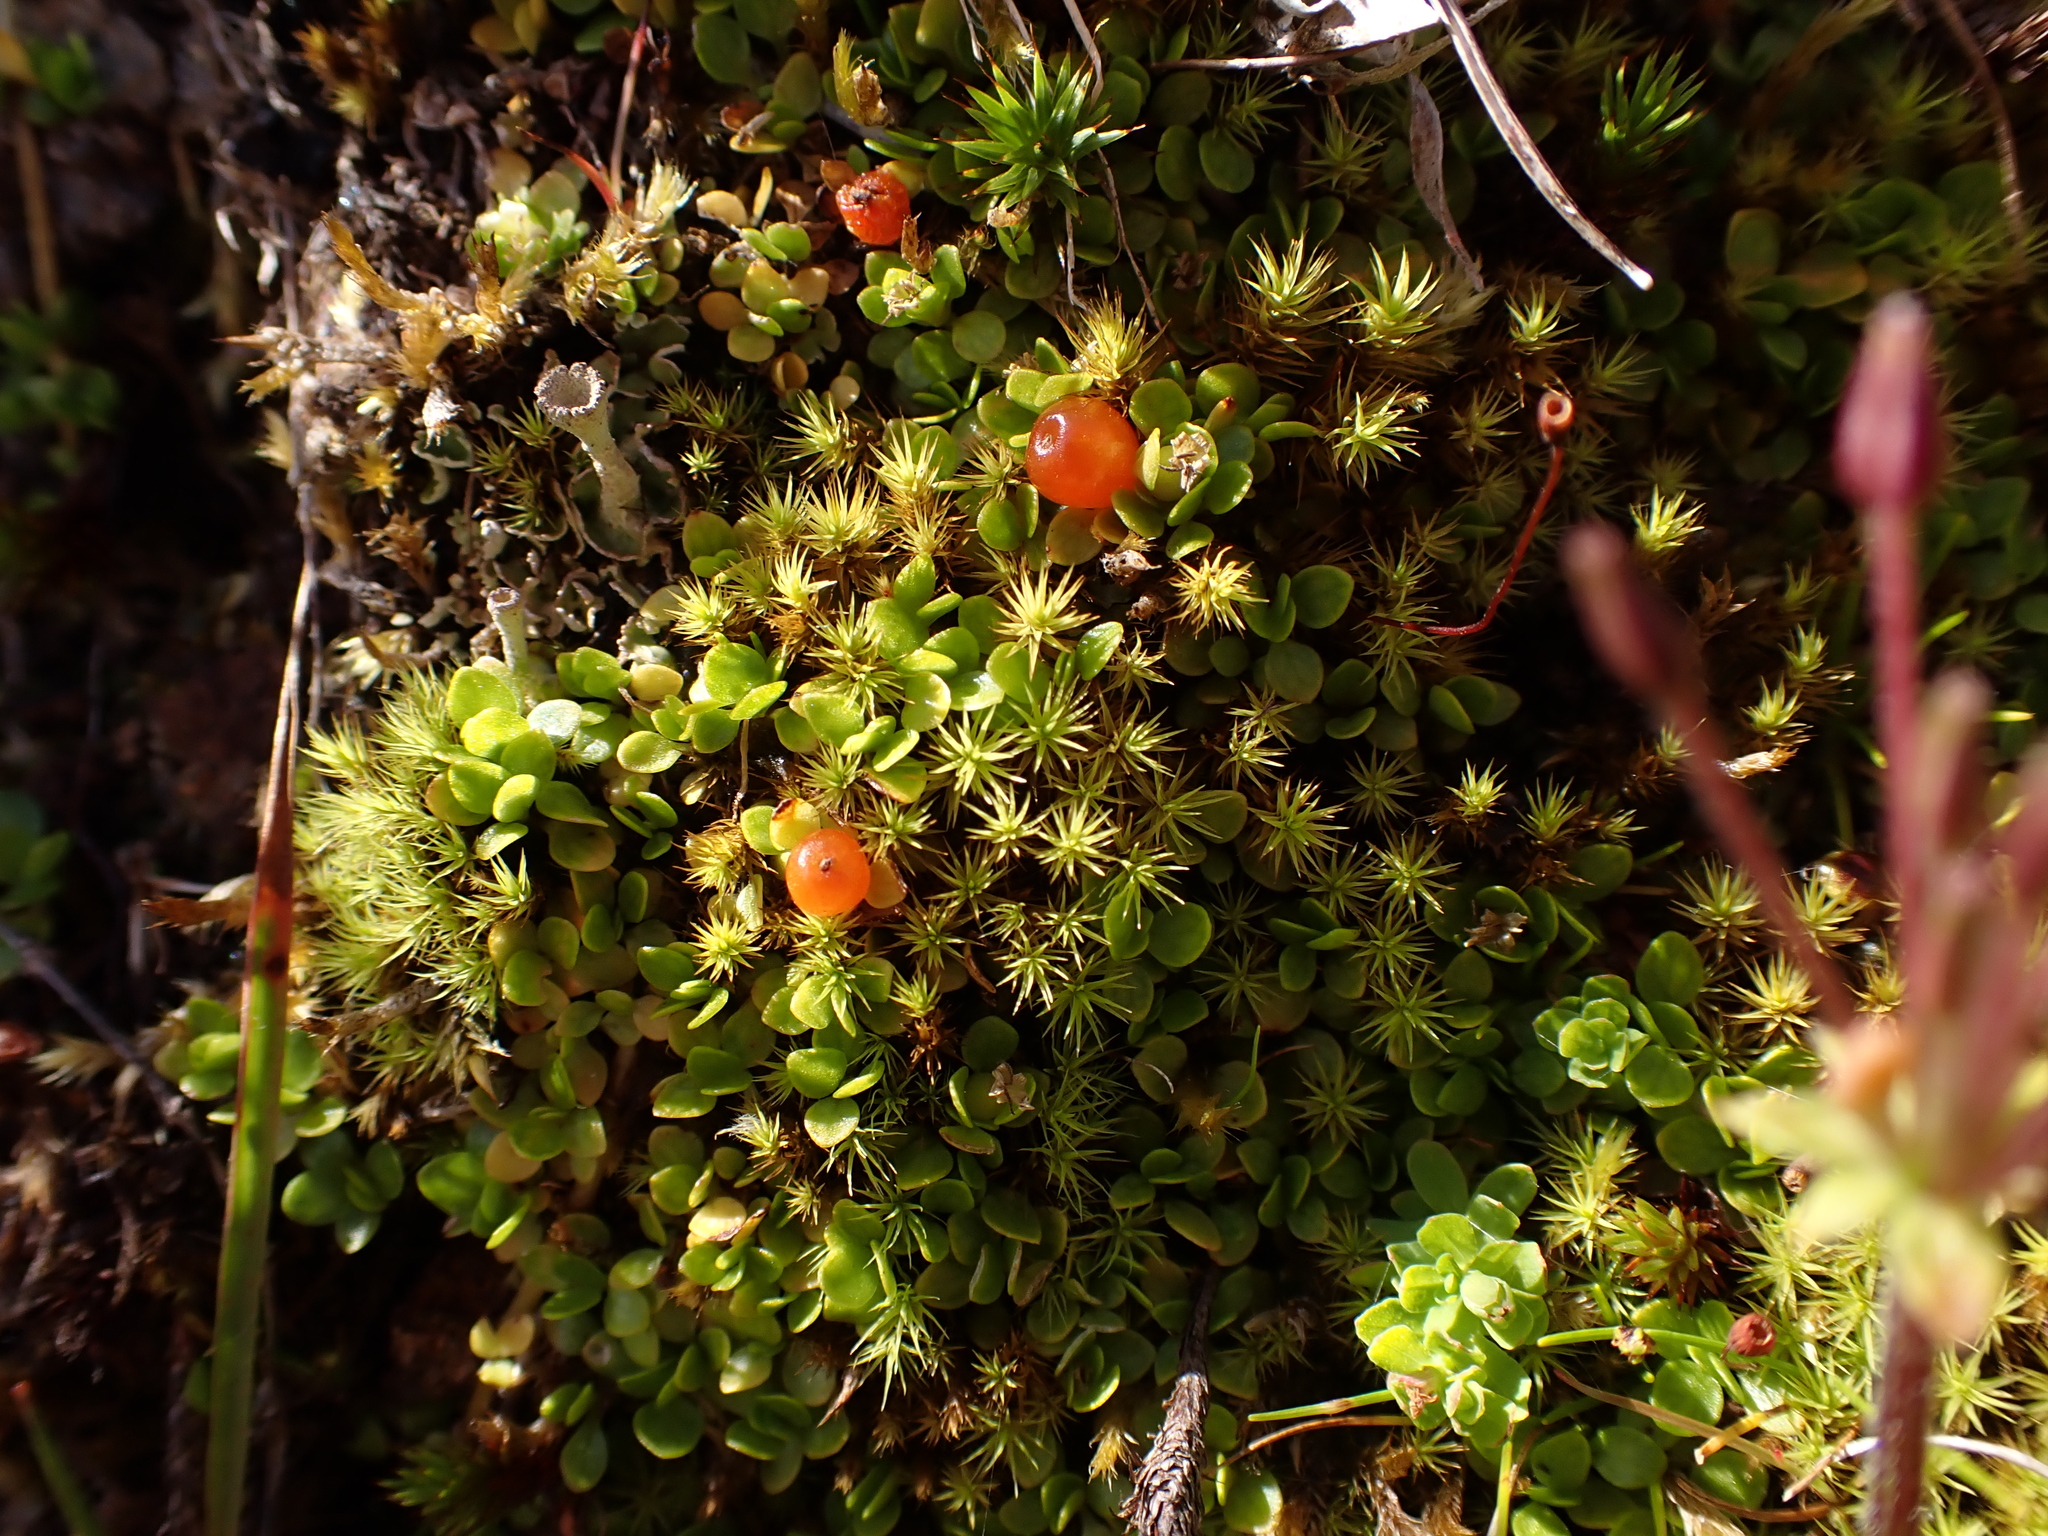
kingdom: Plantae
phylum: Tracheophyta
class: Magnoliopsida
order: Gentianales
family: Rubiaceae
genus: Nertera
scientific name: Nertera granadensis
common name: Beadplant
